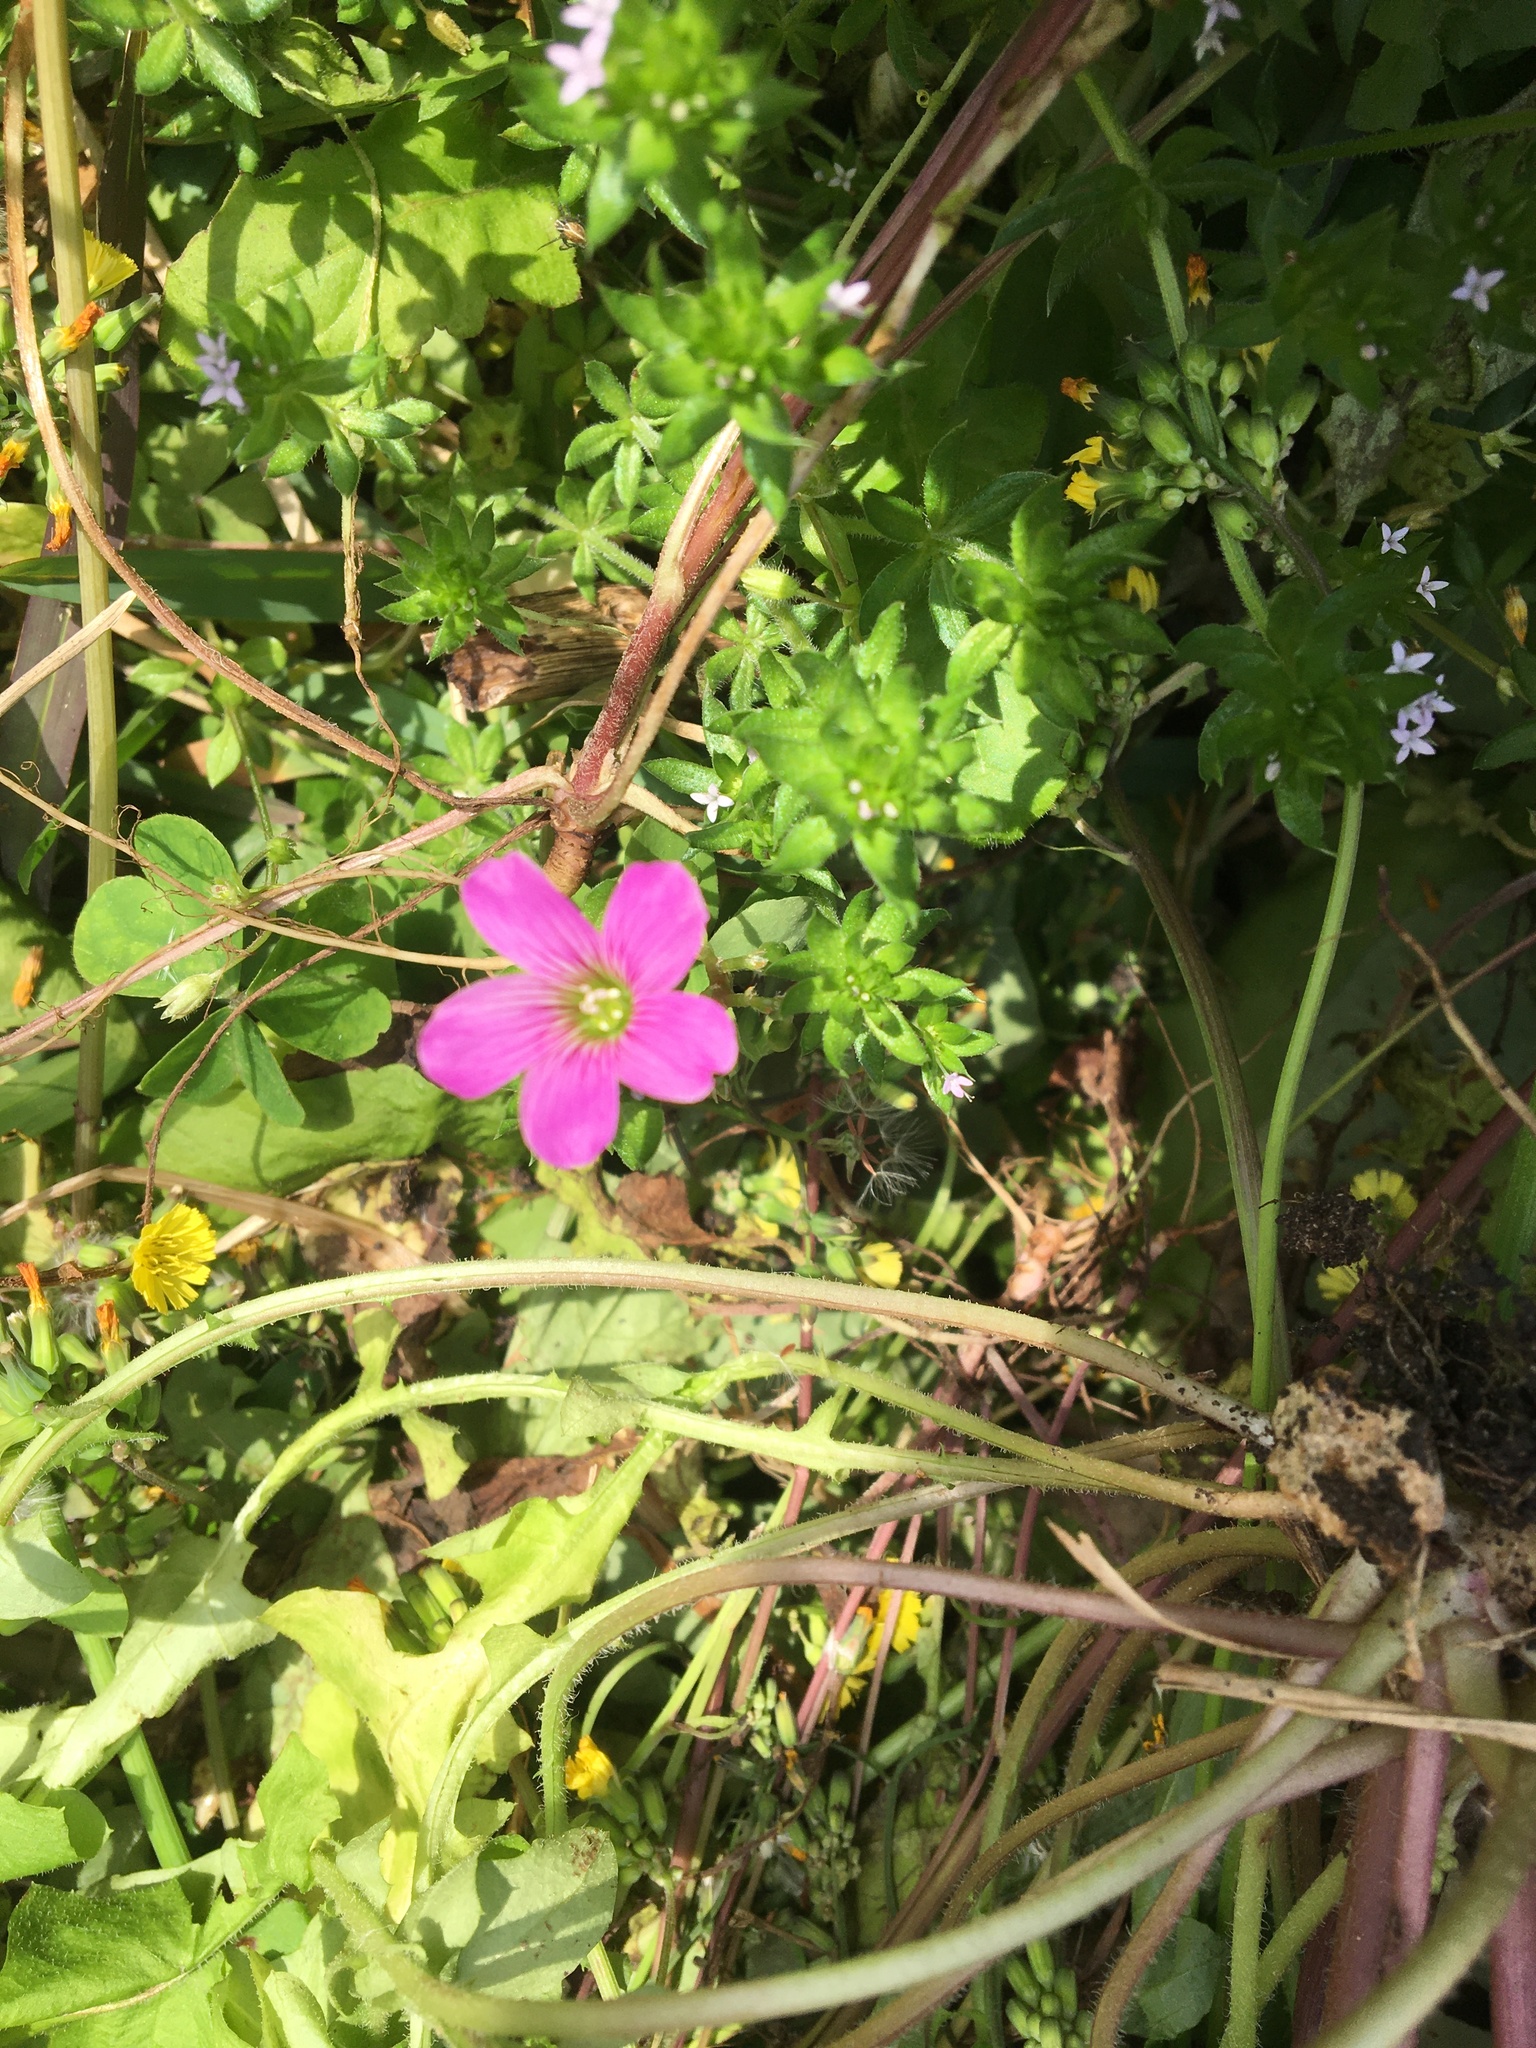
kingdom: Plantae
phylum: Tracheophyta
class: Magnoliopsida
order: Oxalidales
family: Oxalidaceae
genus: Oxalis
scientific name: Oxalis debilis
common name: Large-flowered pink-sorrel
